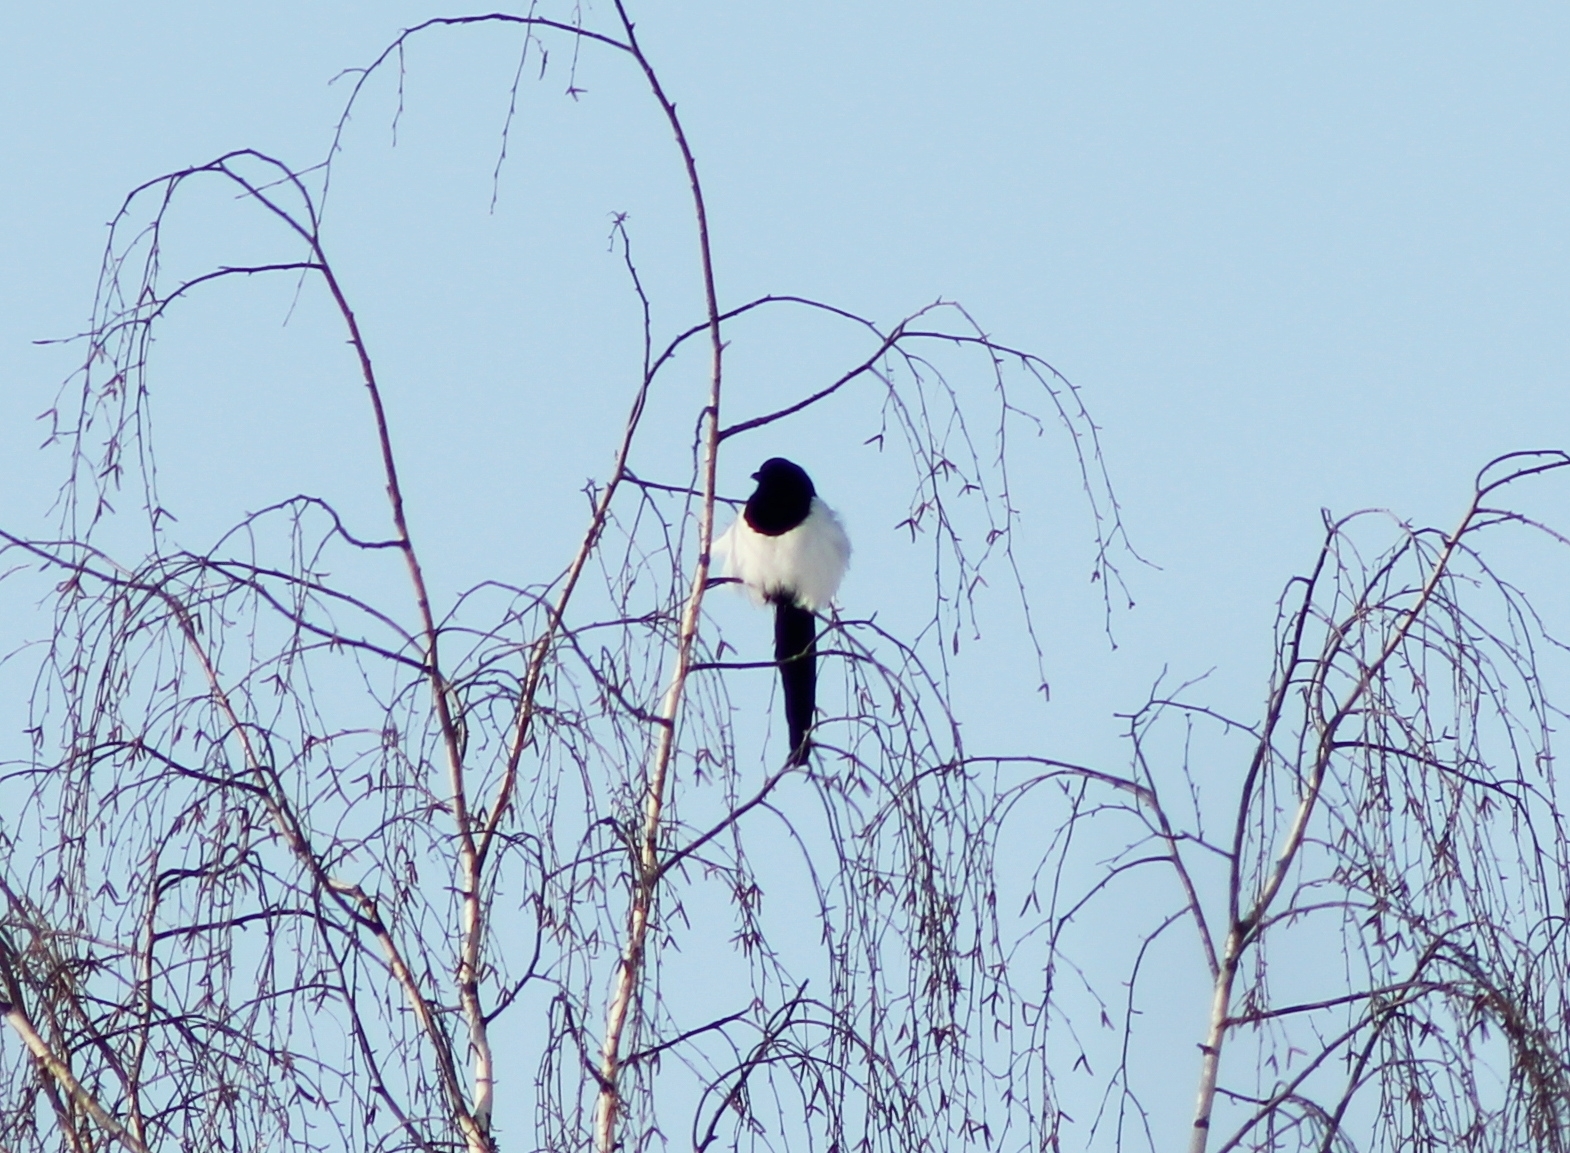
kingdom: Animalia
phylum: Chordata
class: Aves
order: Passeriformes
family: Corvidae
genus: Pica
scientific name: Pica pica
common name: Eurasian magpie
